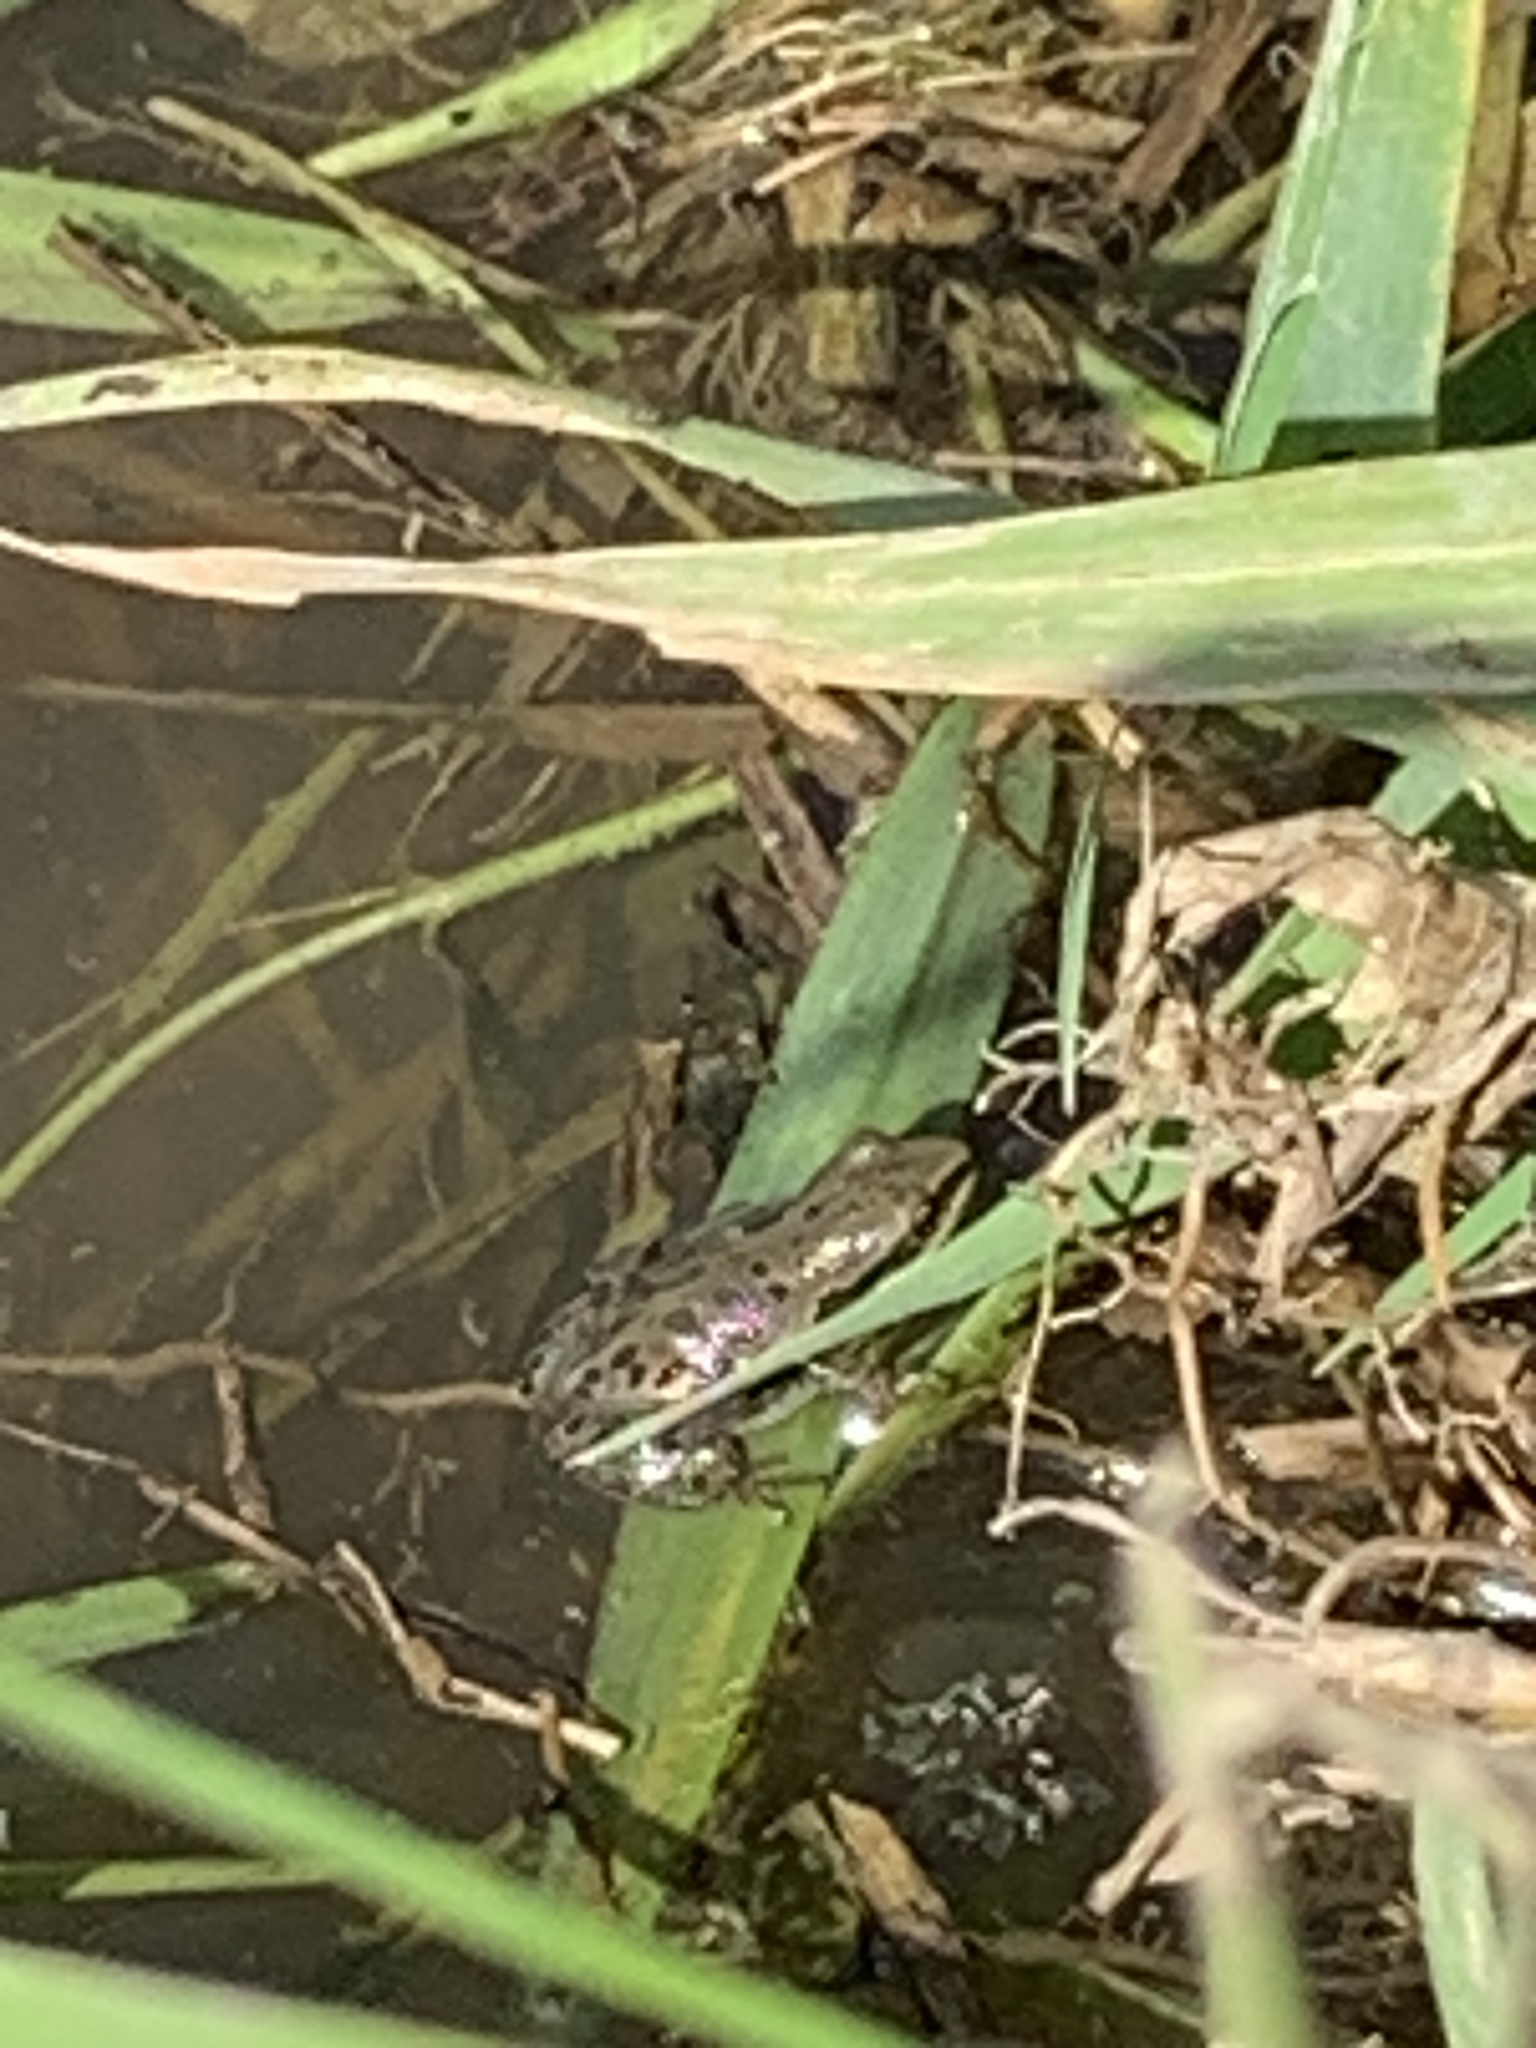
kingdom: Animalia
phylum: Chordata
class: Amphibia
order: Anura
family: Hylidae
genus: Pseudacris
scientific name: Pseudacris maculata
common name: Boreal chorus frog
